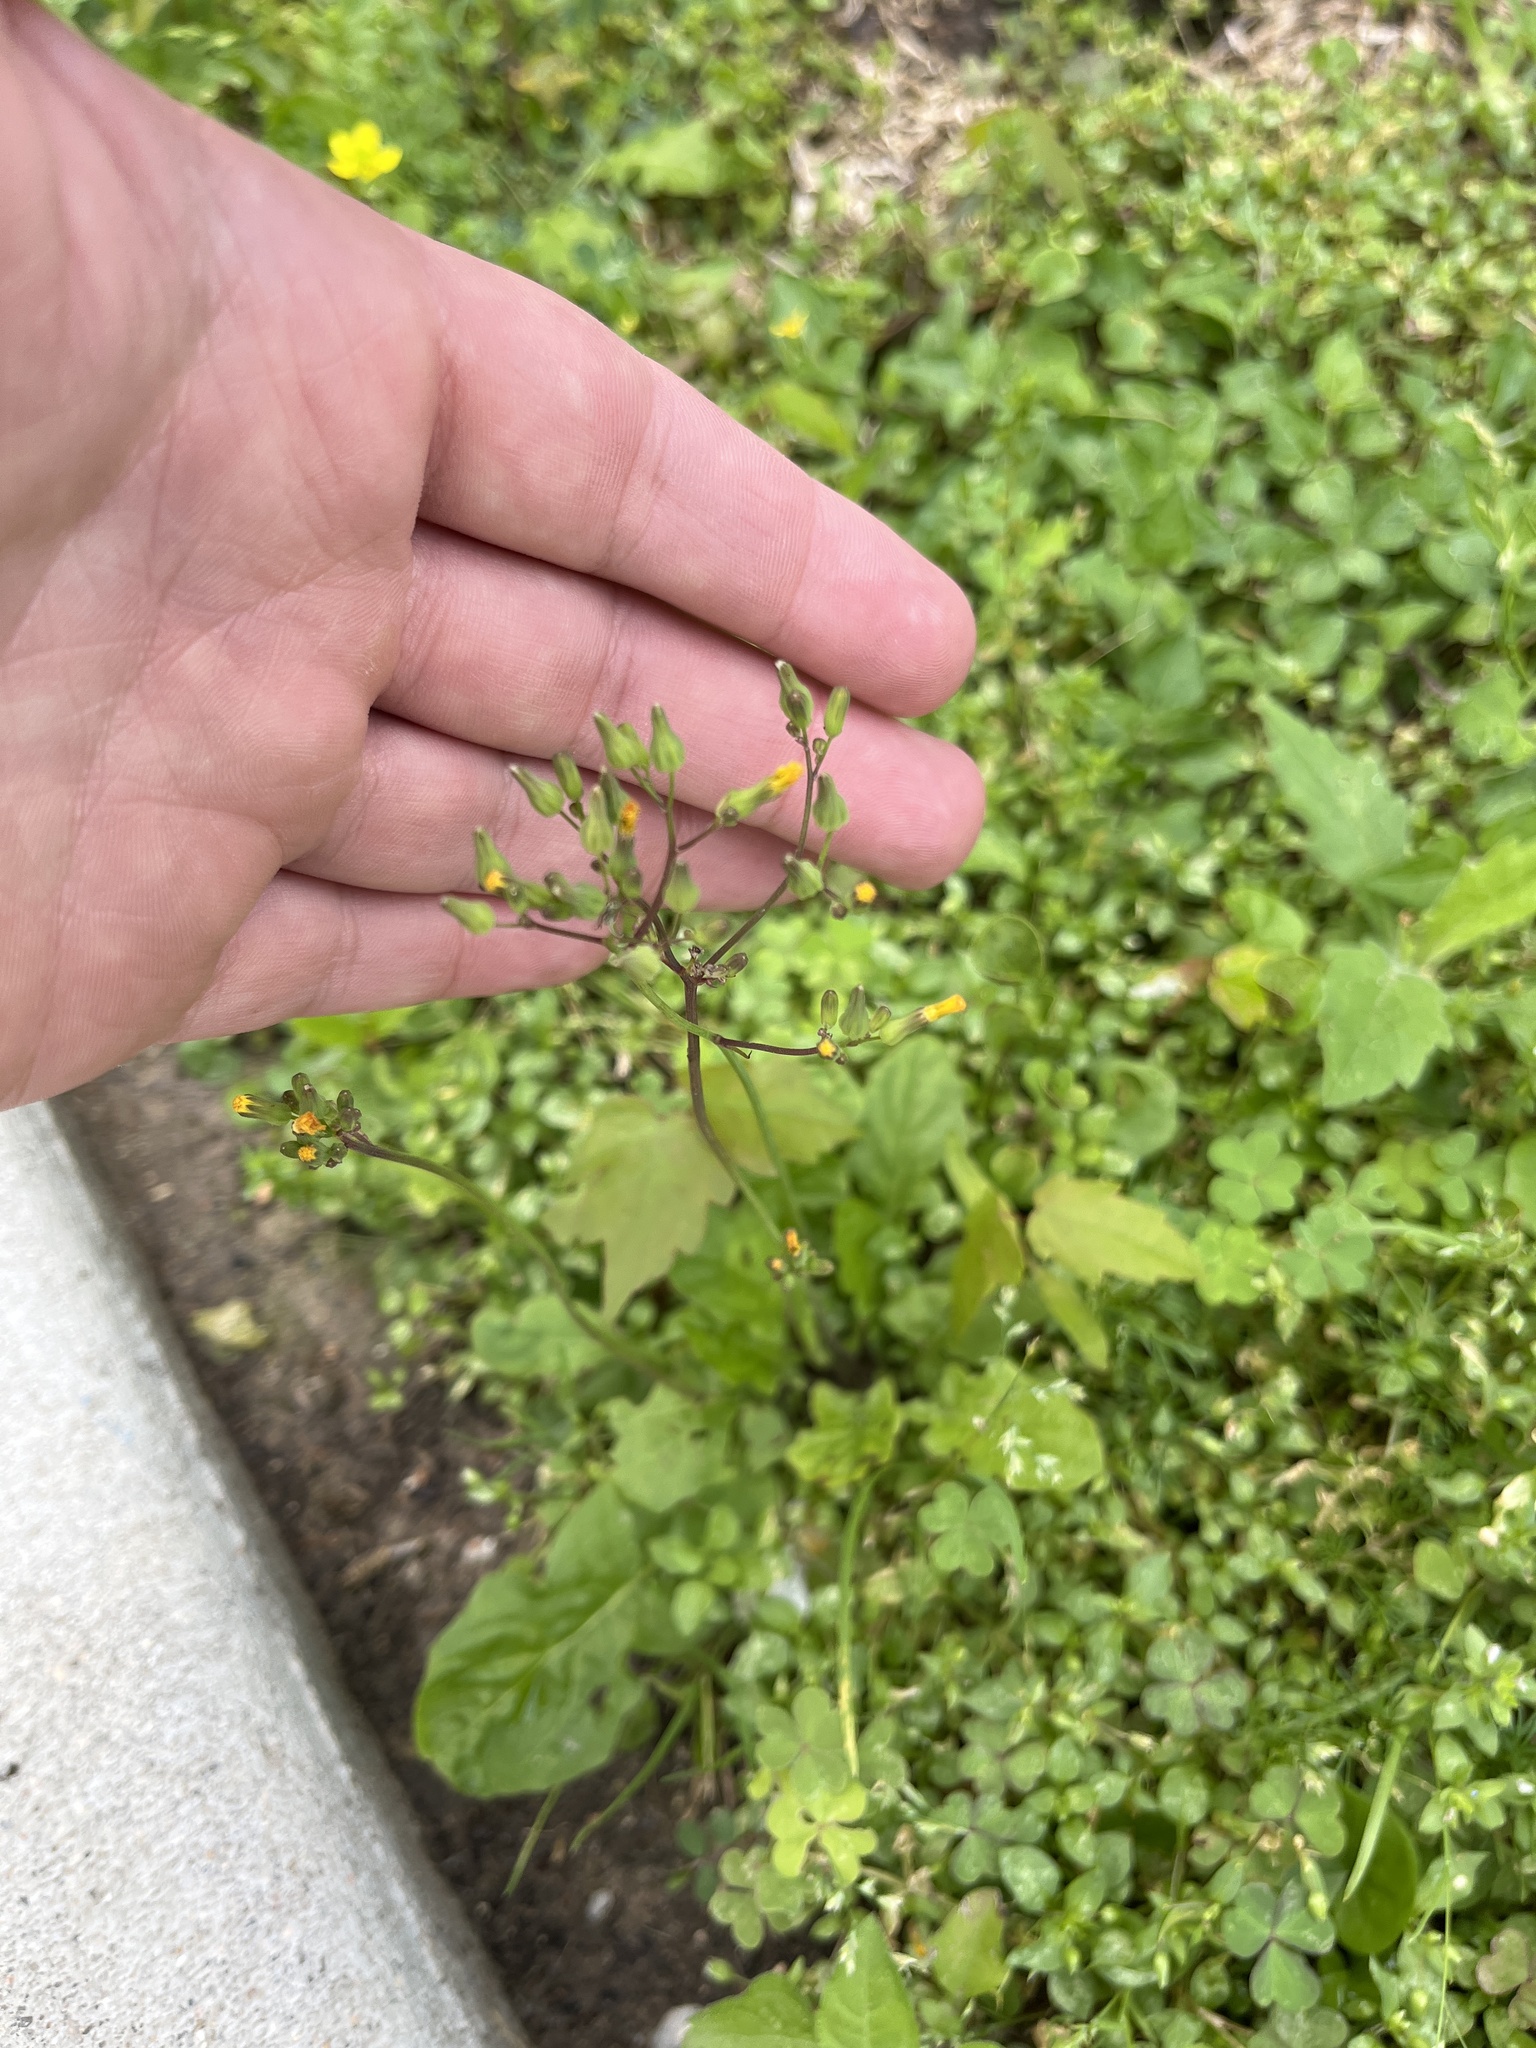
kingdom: Plantae
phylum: Tracheophyta
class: Magnoliopsida
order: Asterales
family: Asteraceae
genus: Youngia
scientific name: Youngia japonica
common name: Oriental false hawksbeard
